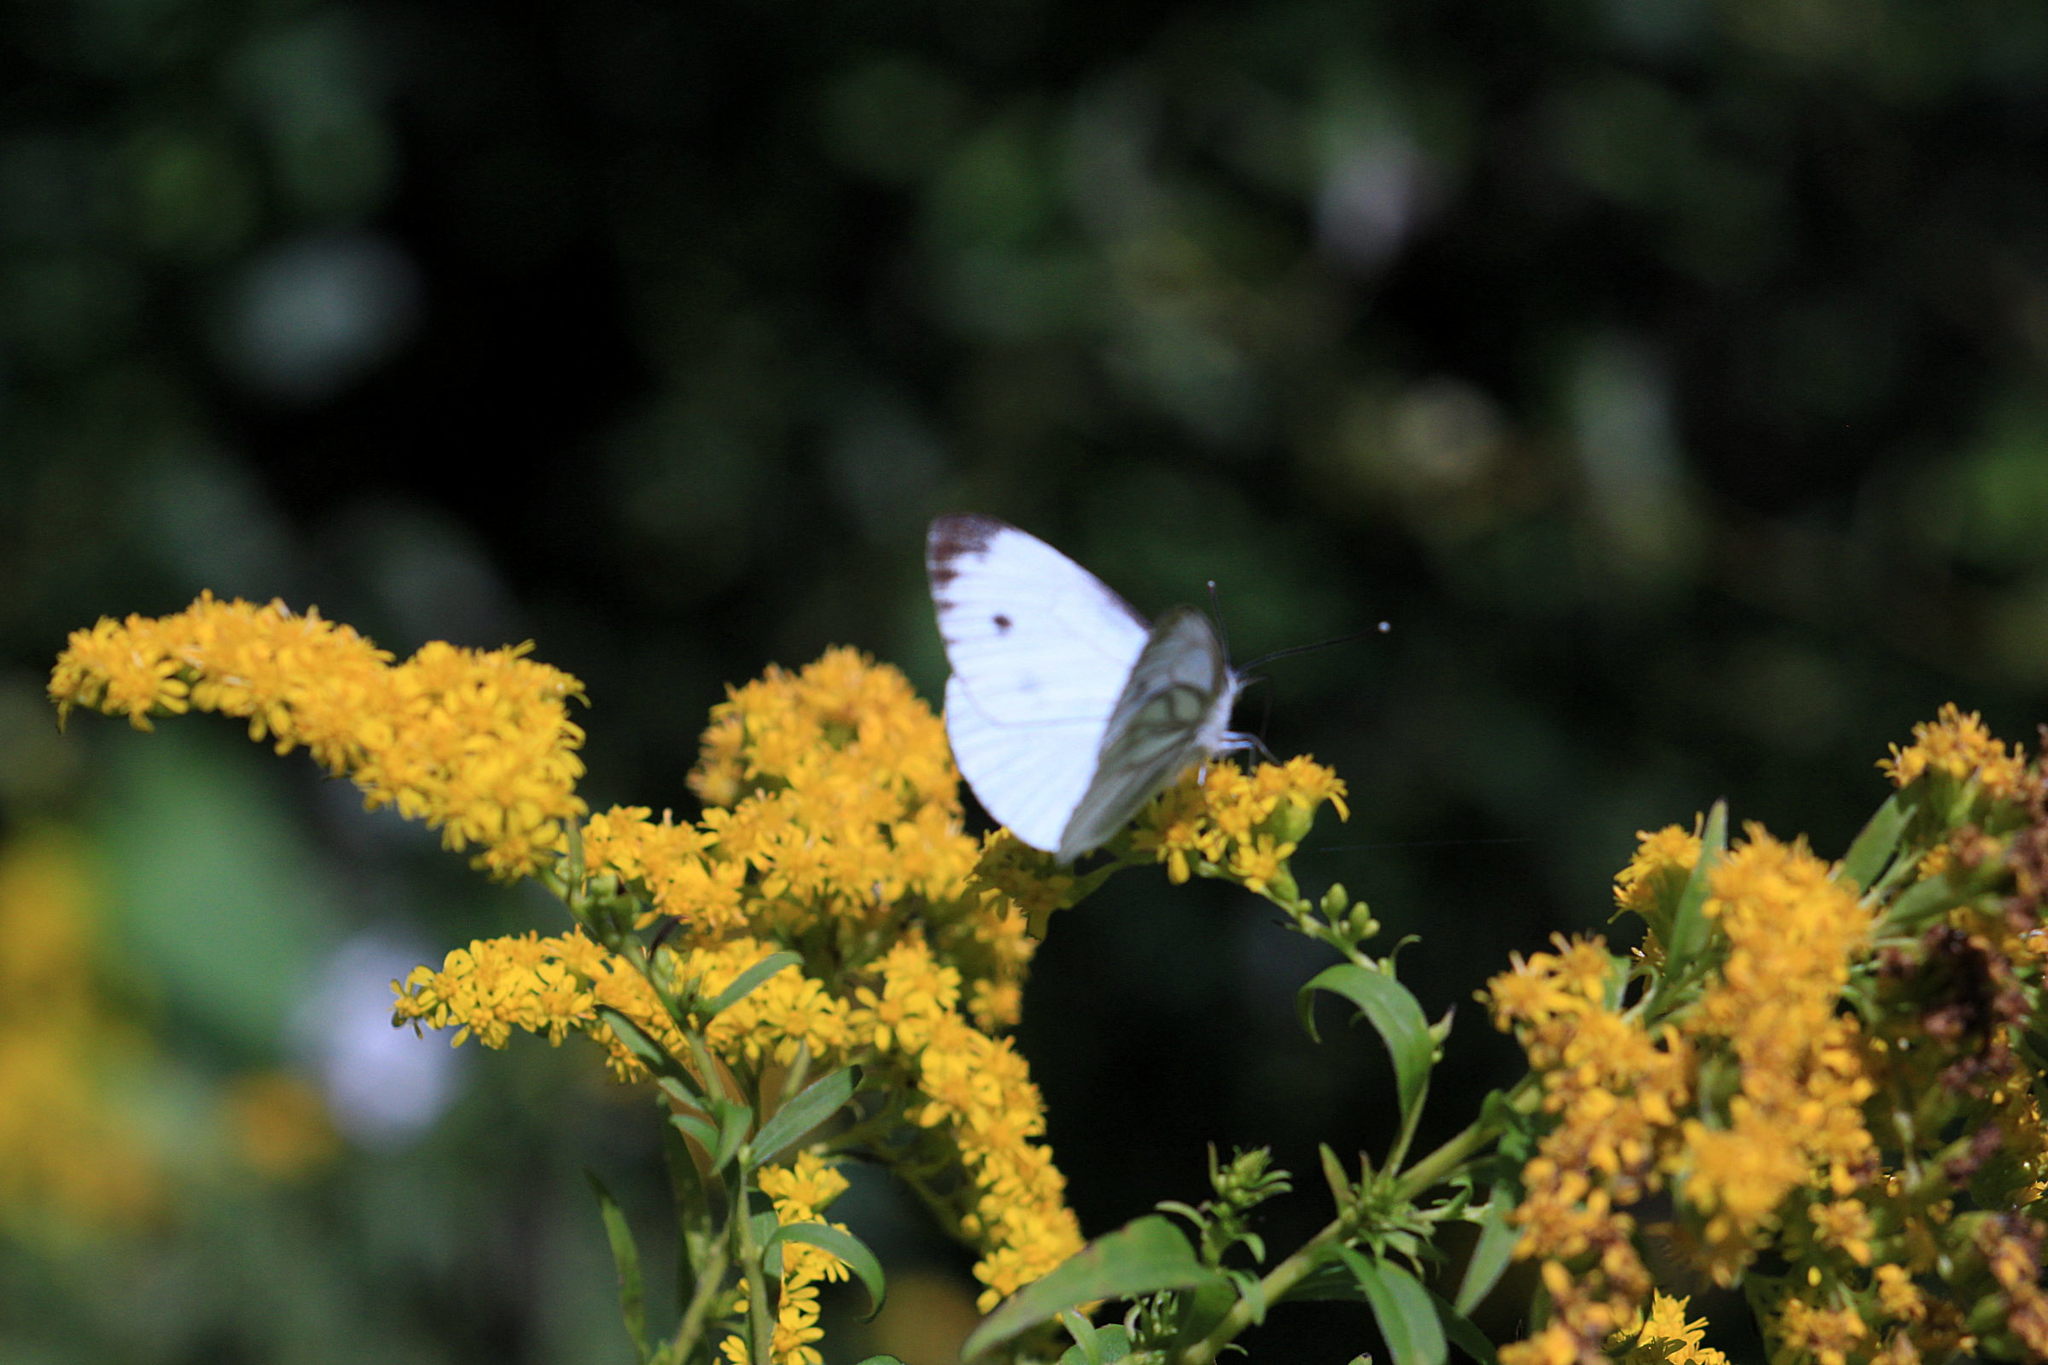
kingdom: Animalia
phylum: Arthropoda
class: Insecta
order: Lepidoptera
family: Pieridae
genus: Pieris
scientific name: Pieris napi
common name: Green-veined white
